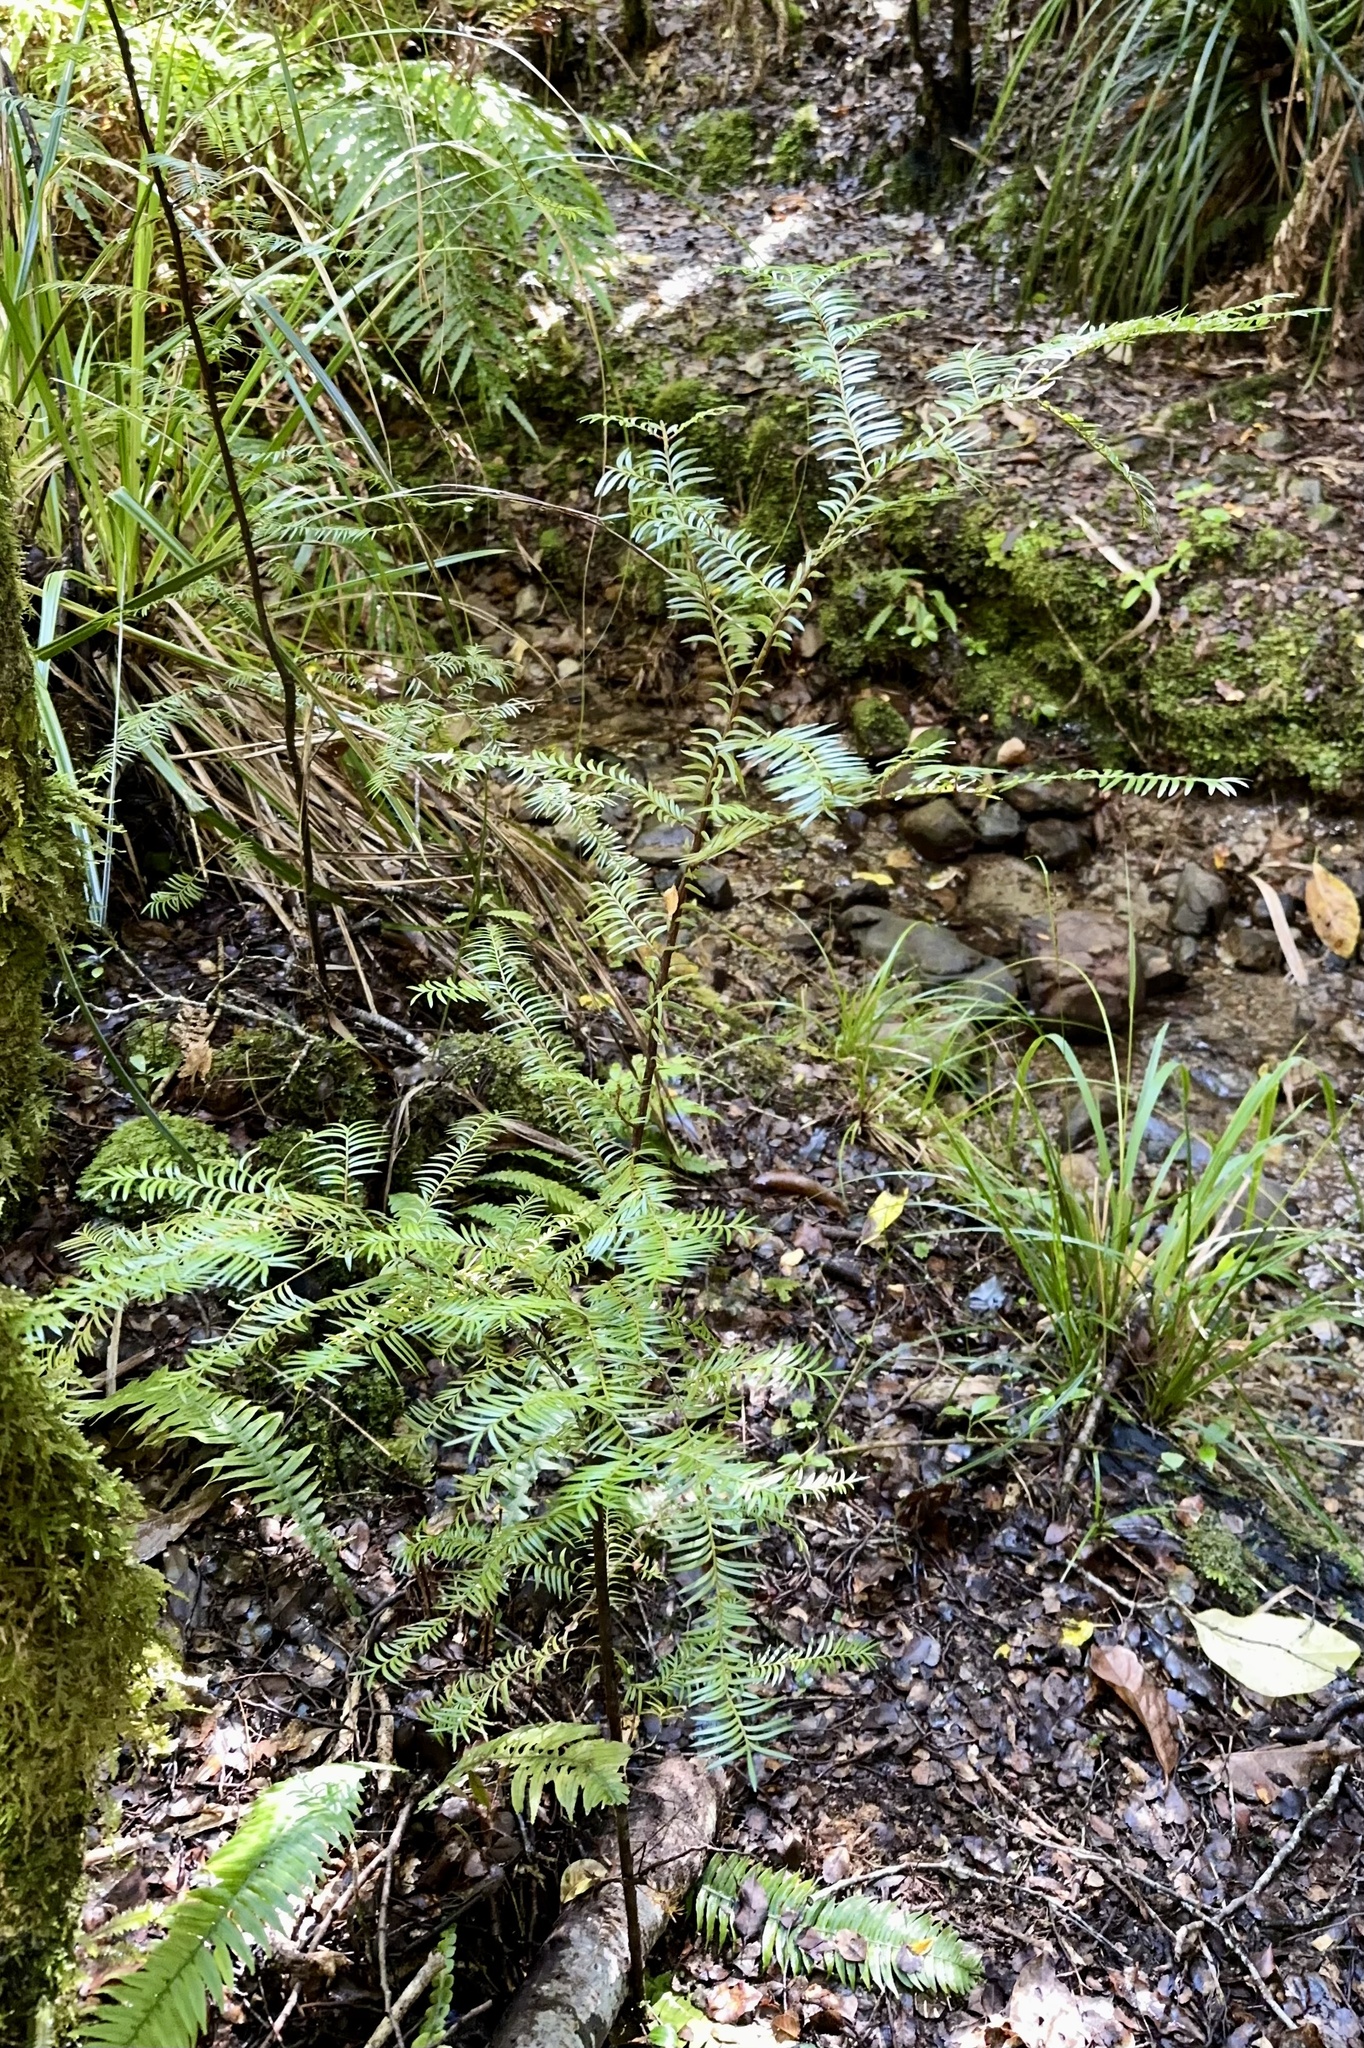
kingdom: Plantae
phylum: Tracheophyta
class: Pinopsida
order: Pinales
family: Podocarpaceae
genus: Prumnopitys
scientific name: Prumnopitys ferruginea
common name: Brown pine
